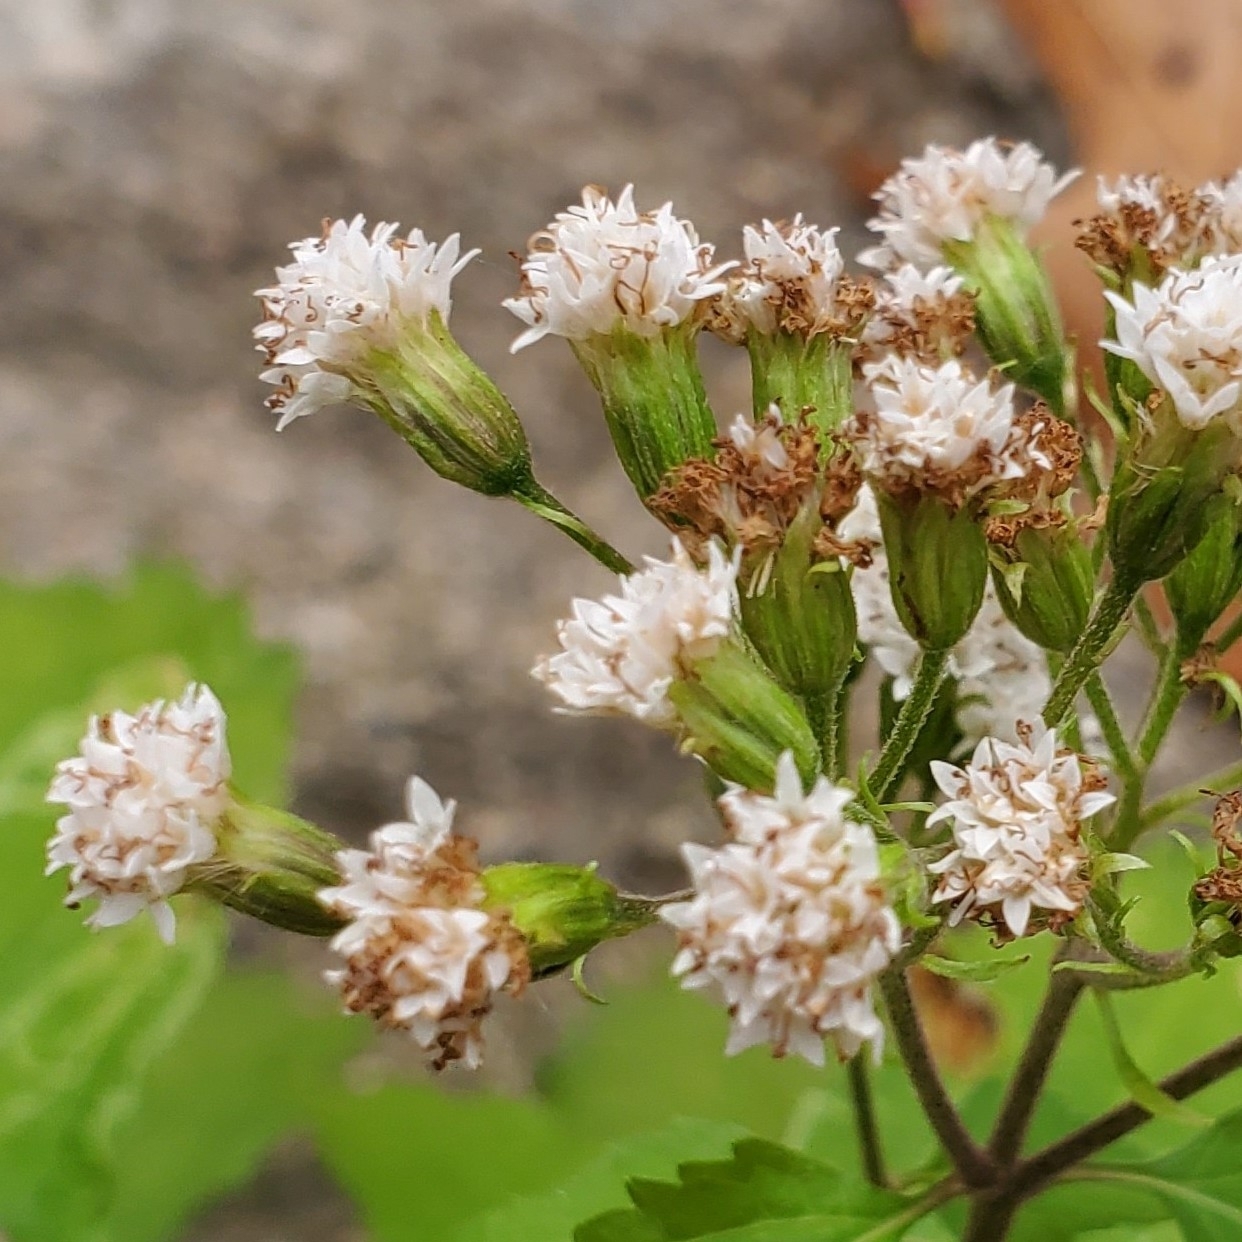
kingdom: Plantae
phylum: Tracheophyta
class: Magnoliopsida
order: Asterales
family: Asteraceae
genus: Ageratina
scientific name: Ageratina altissima
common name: White snakeroot
